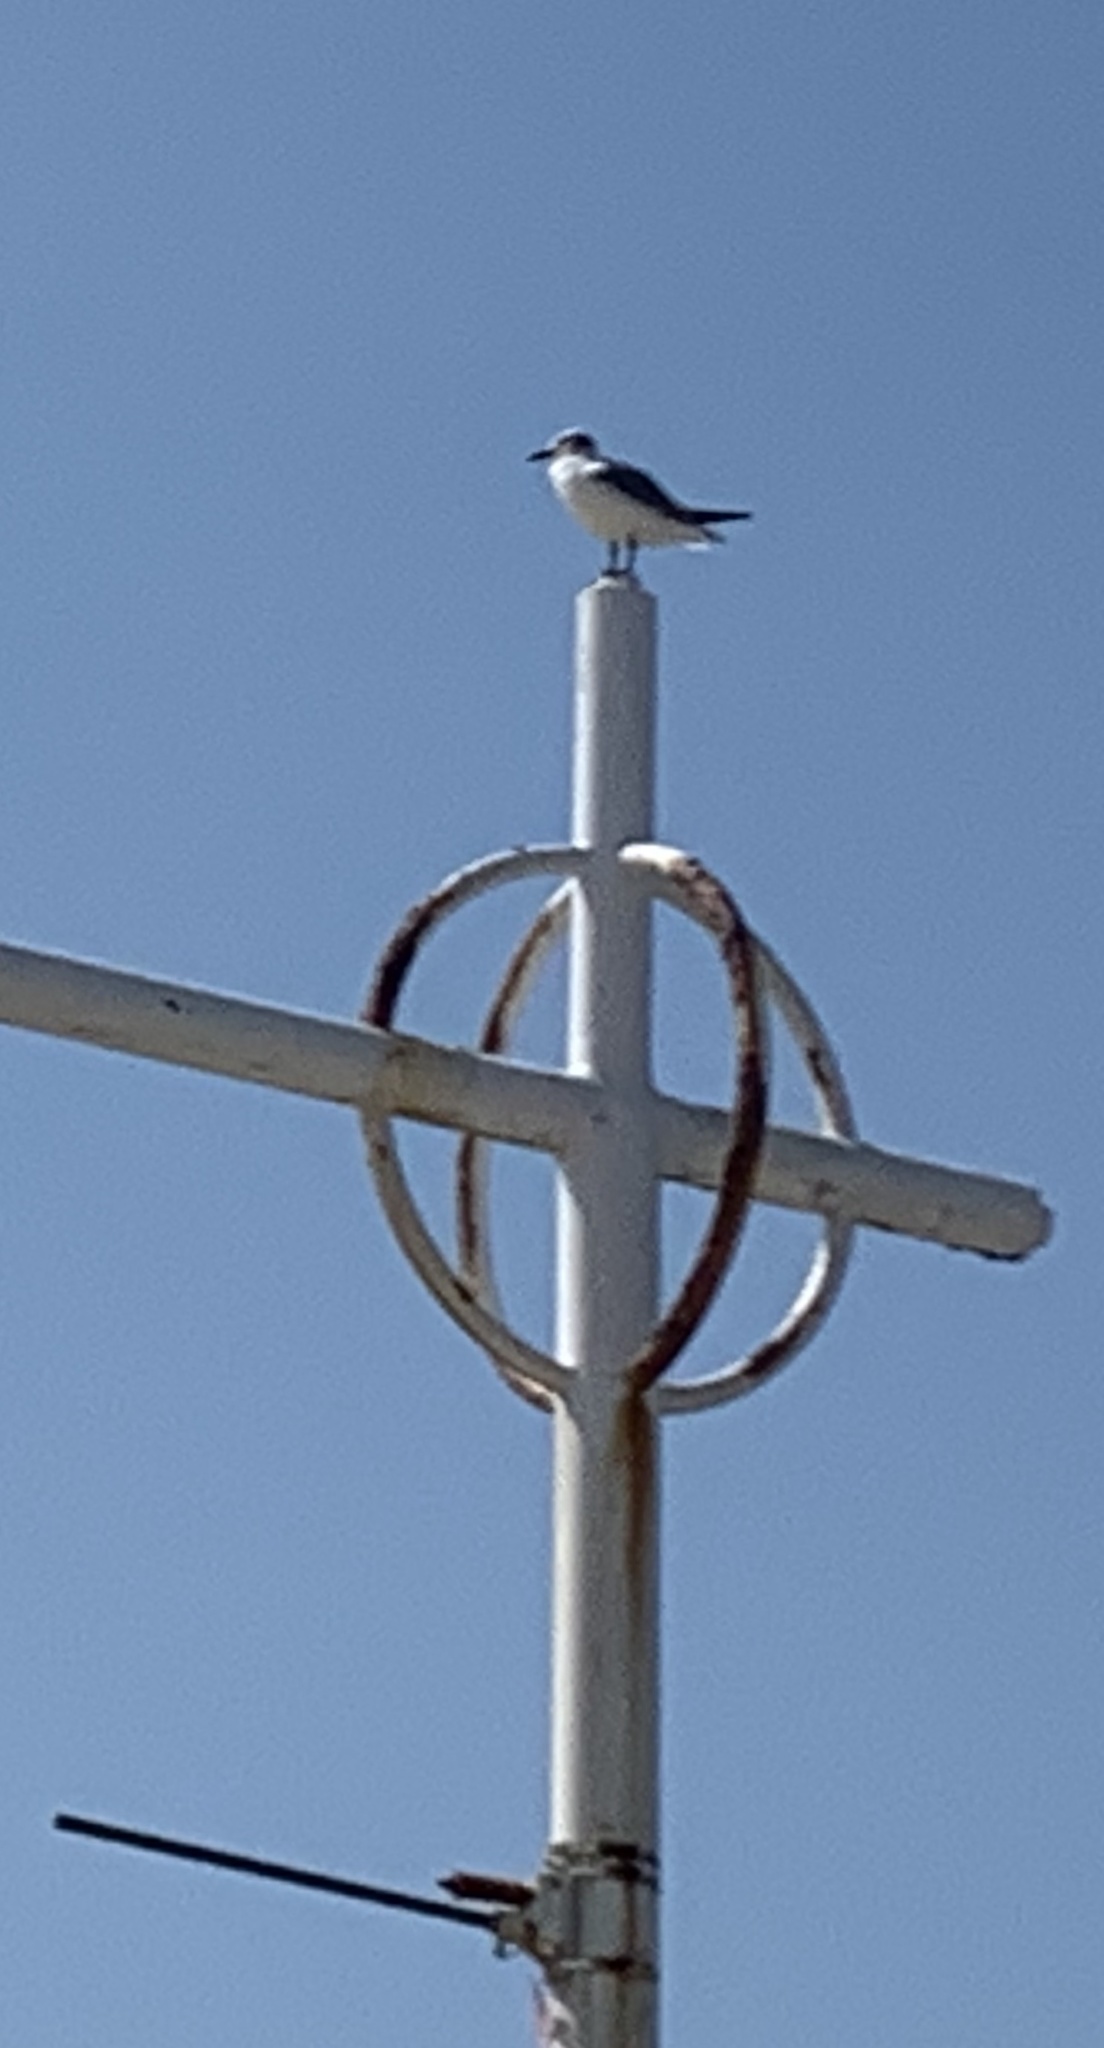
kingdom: Animalia
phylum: Chordata
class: Aves
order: Charadriiformes
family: Laridae
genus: Leucophaeus
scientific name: Leucophaeus atricilla
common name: Laughing gull
